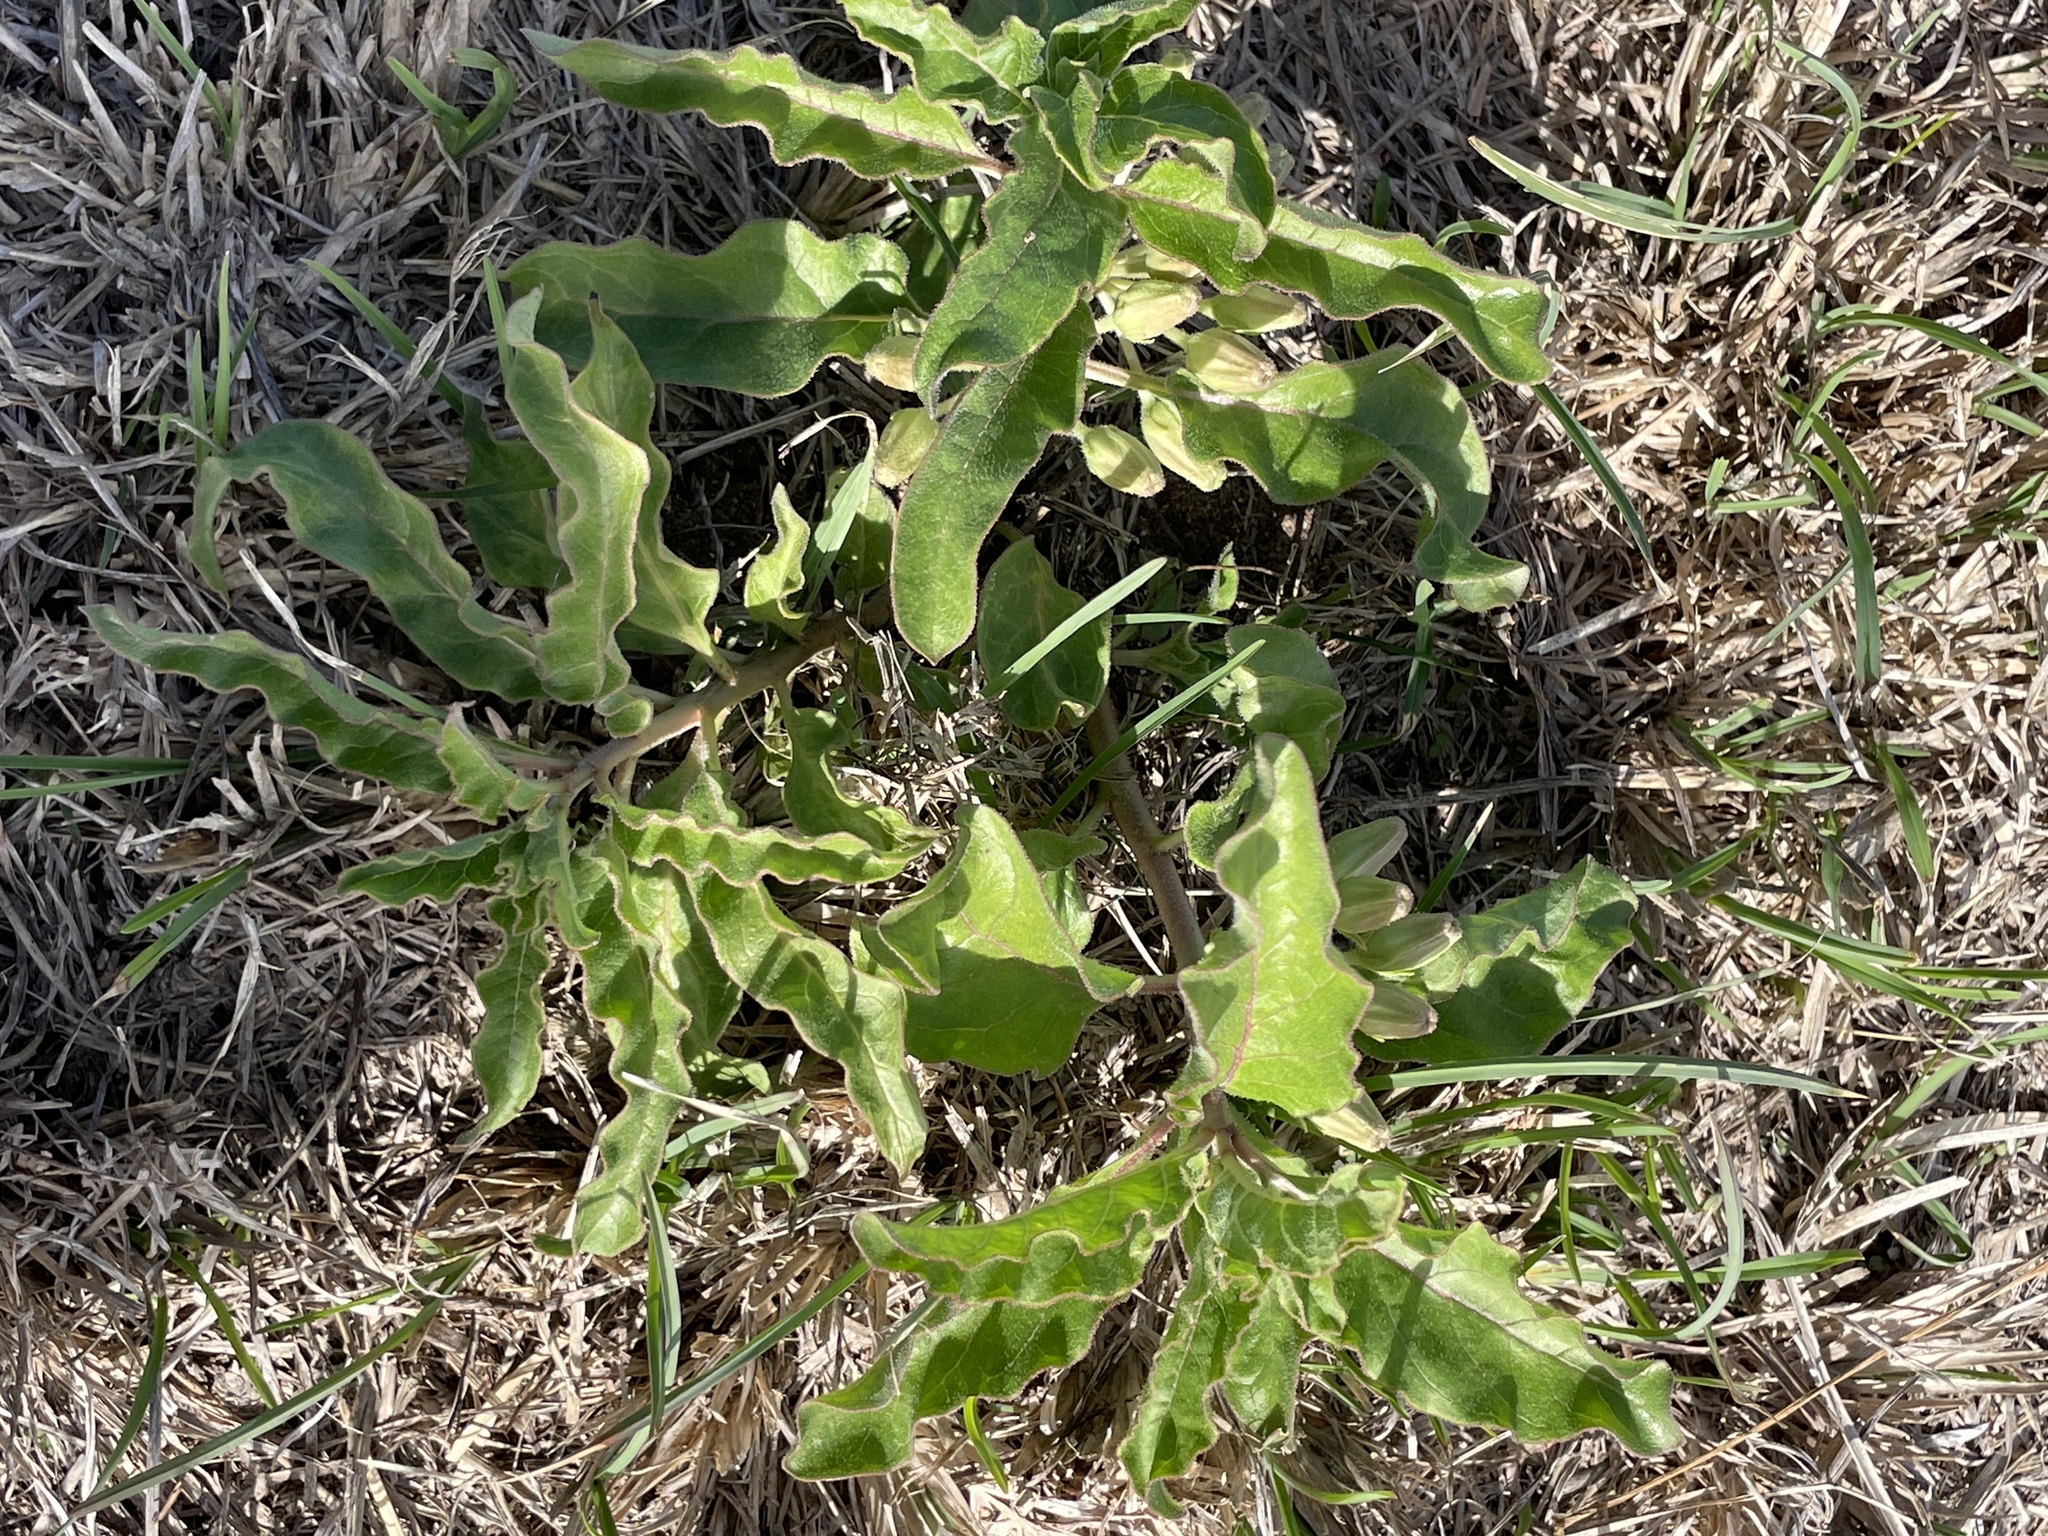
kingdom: Plantae
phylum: Tracheophyta
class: Magnoliopsida
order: Gentianales
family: Apocynaceae
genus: Asclepias
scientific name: Asclepias oenotheroides
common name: Zizotes milkweed
